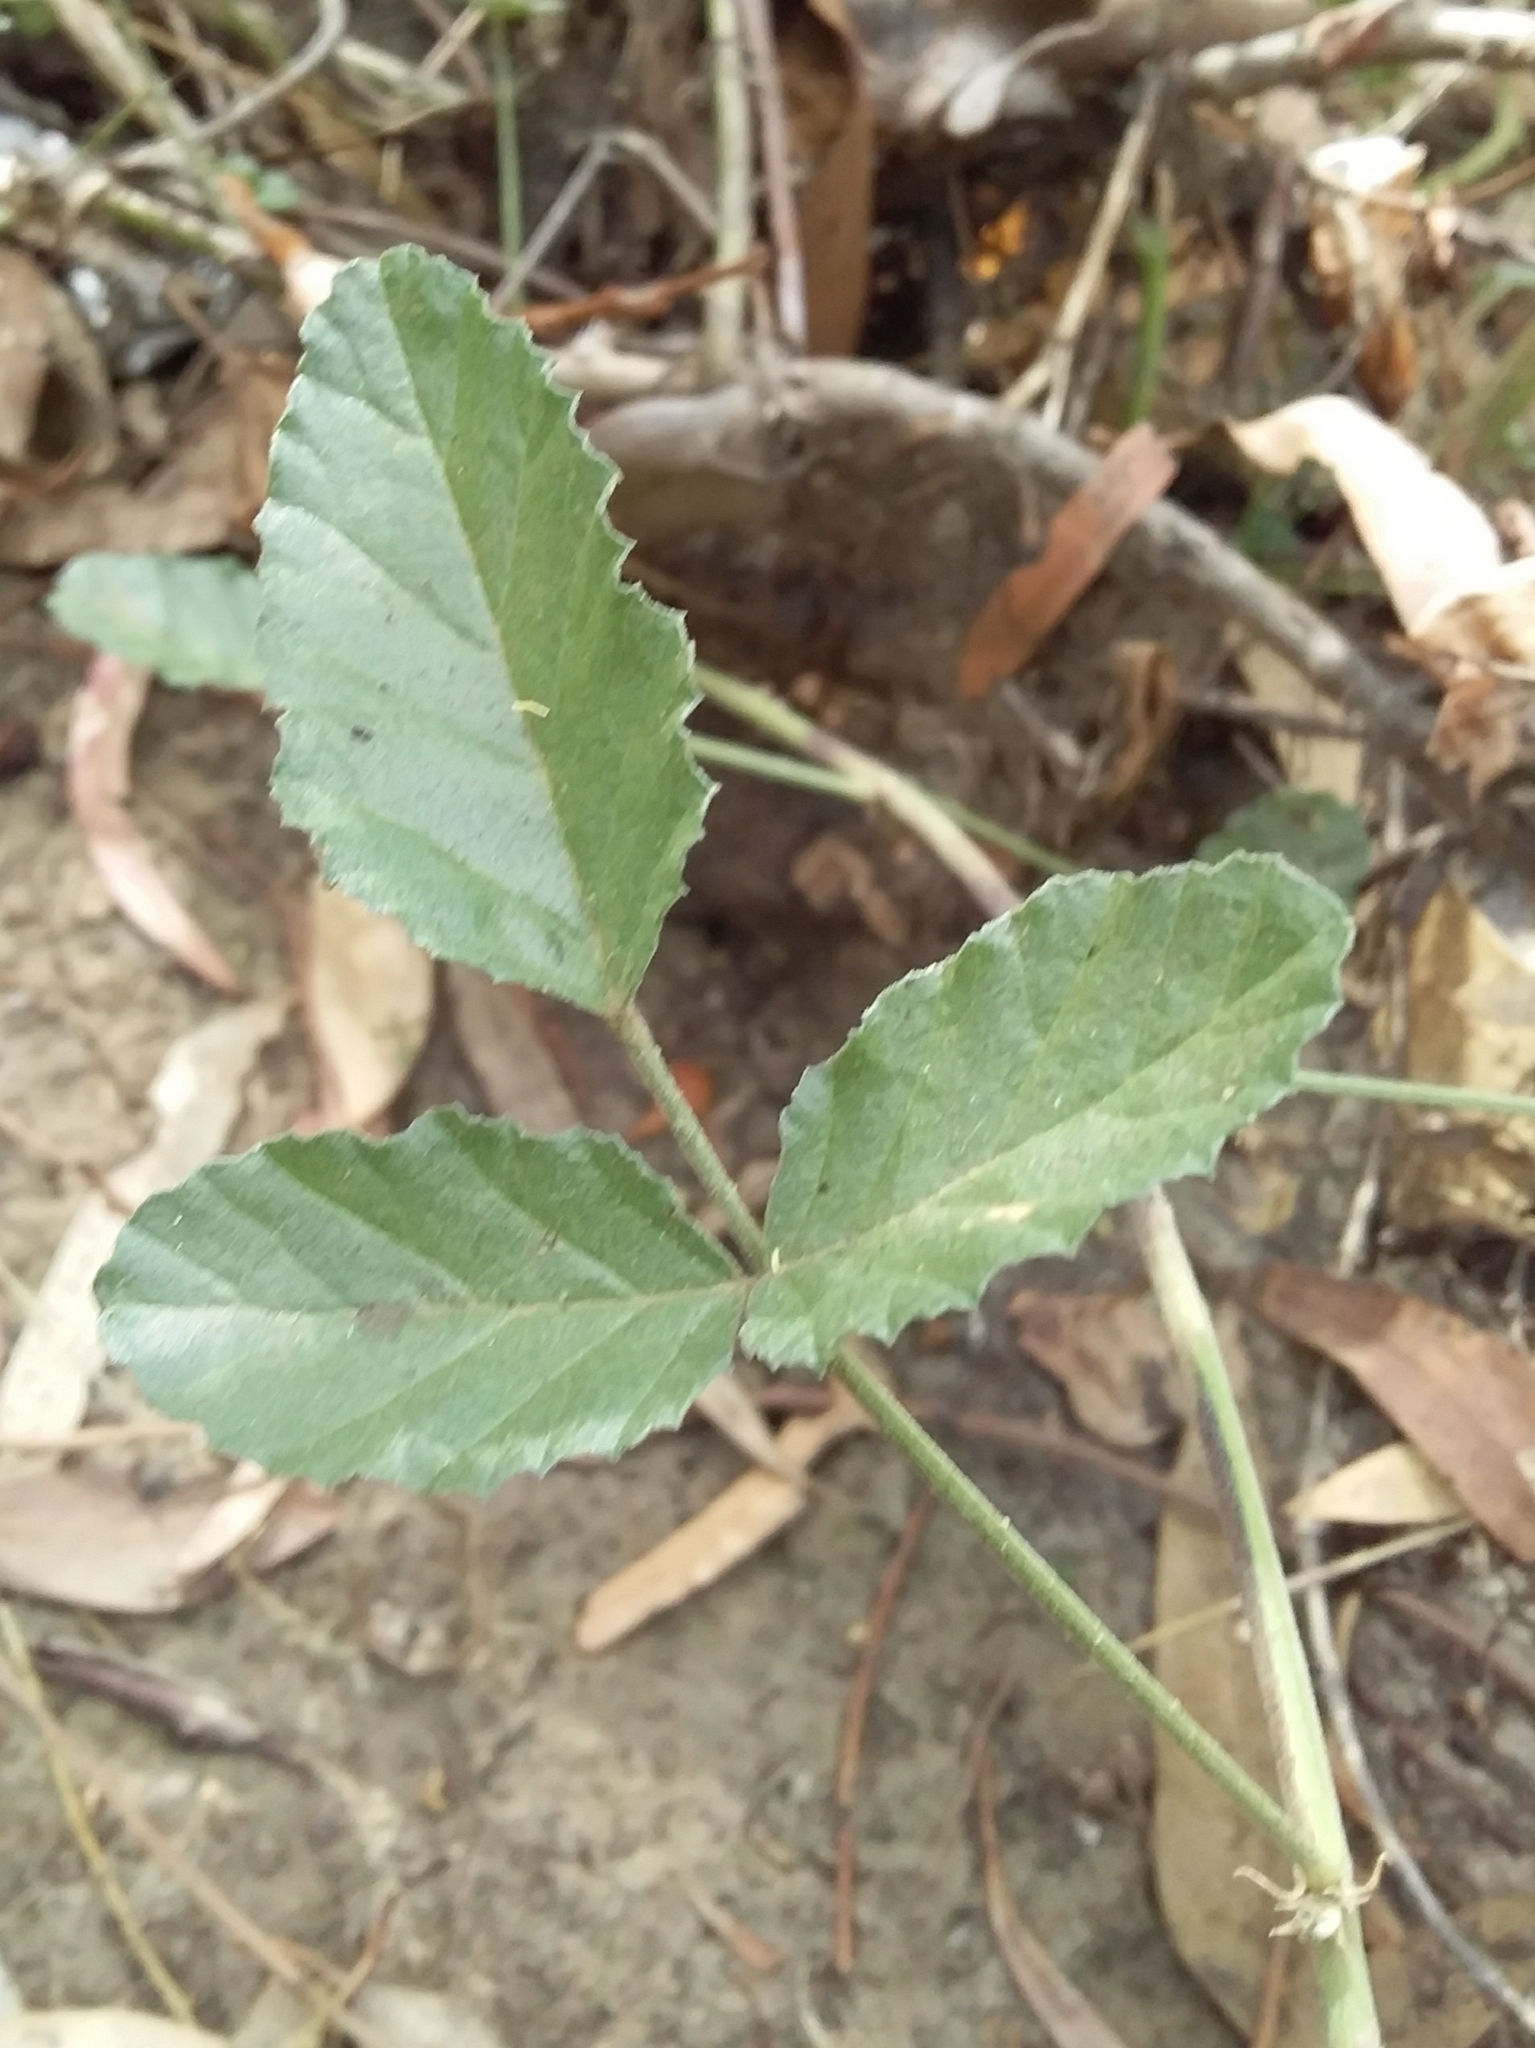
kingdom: Plantae
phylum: Tracheophyta
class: Magnoliopsida
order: Fabales
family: Fabaceae
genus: Cullen
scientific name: Cullen australasicum
